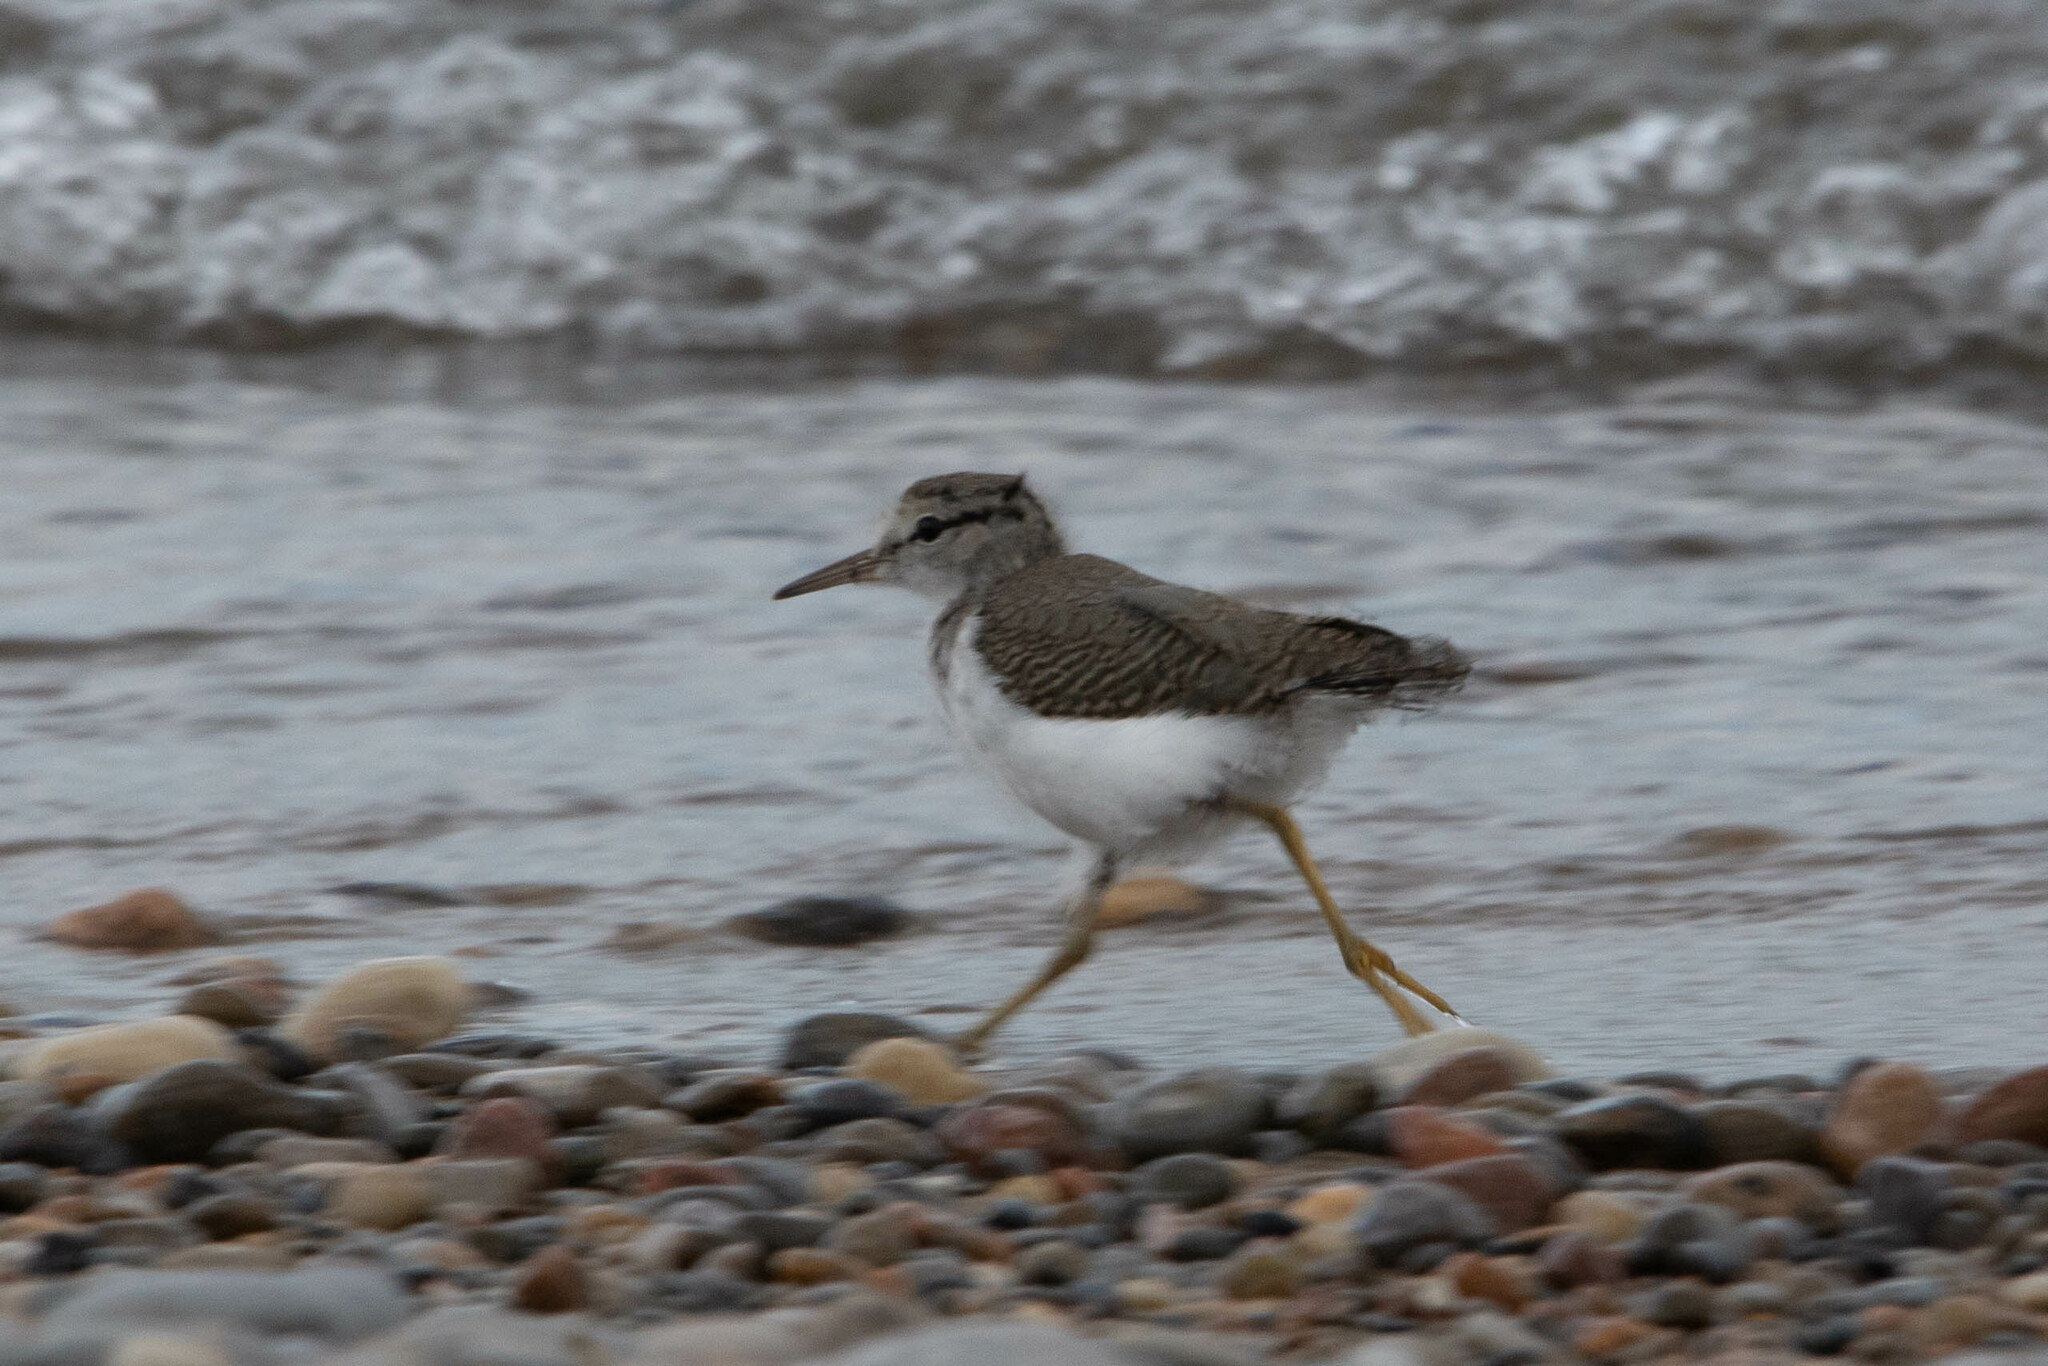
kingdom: Animalia
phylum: Chordata
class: Aves
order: Charadriiformes
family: Scolopacidae
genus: Actitis
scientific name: Actitis macularius
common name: Spotted sandpiper
